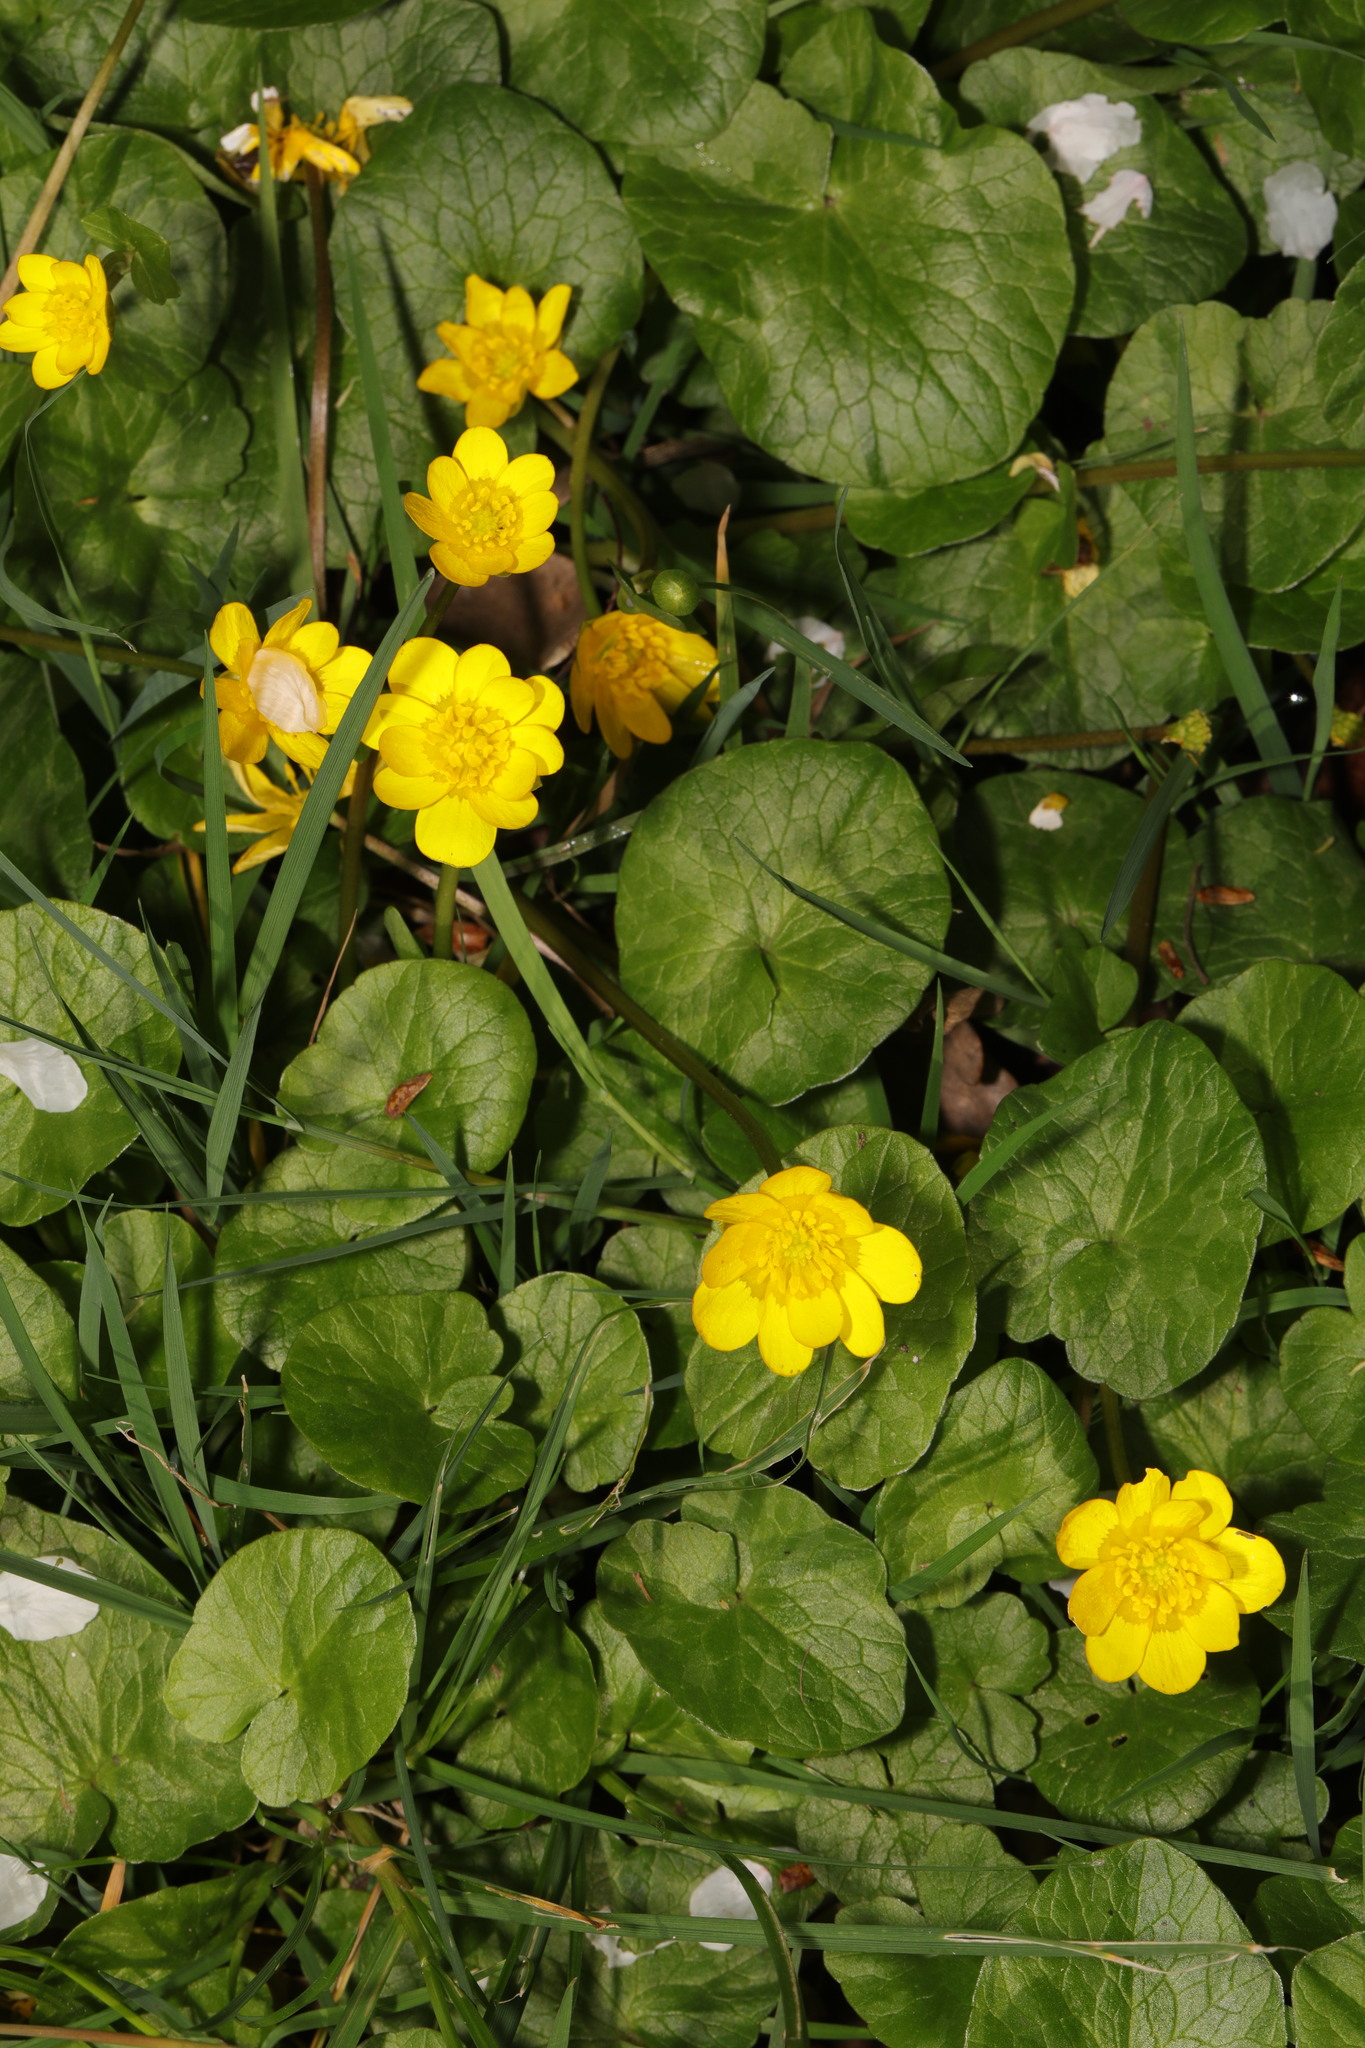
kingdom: Plantae
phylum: Tracheophyta
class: Magnoliopsida
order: Ranunculales
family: Ranunculaceae
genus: Ficaria
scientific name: Ficaria verna
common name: Lesser celandine
